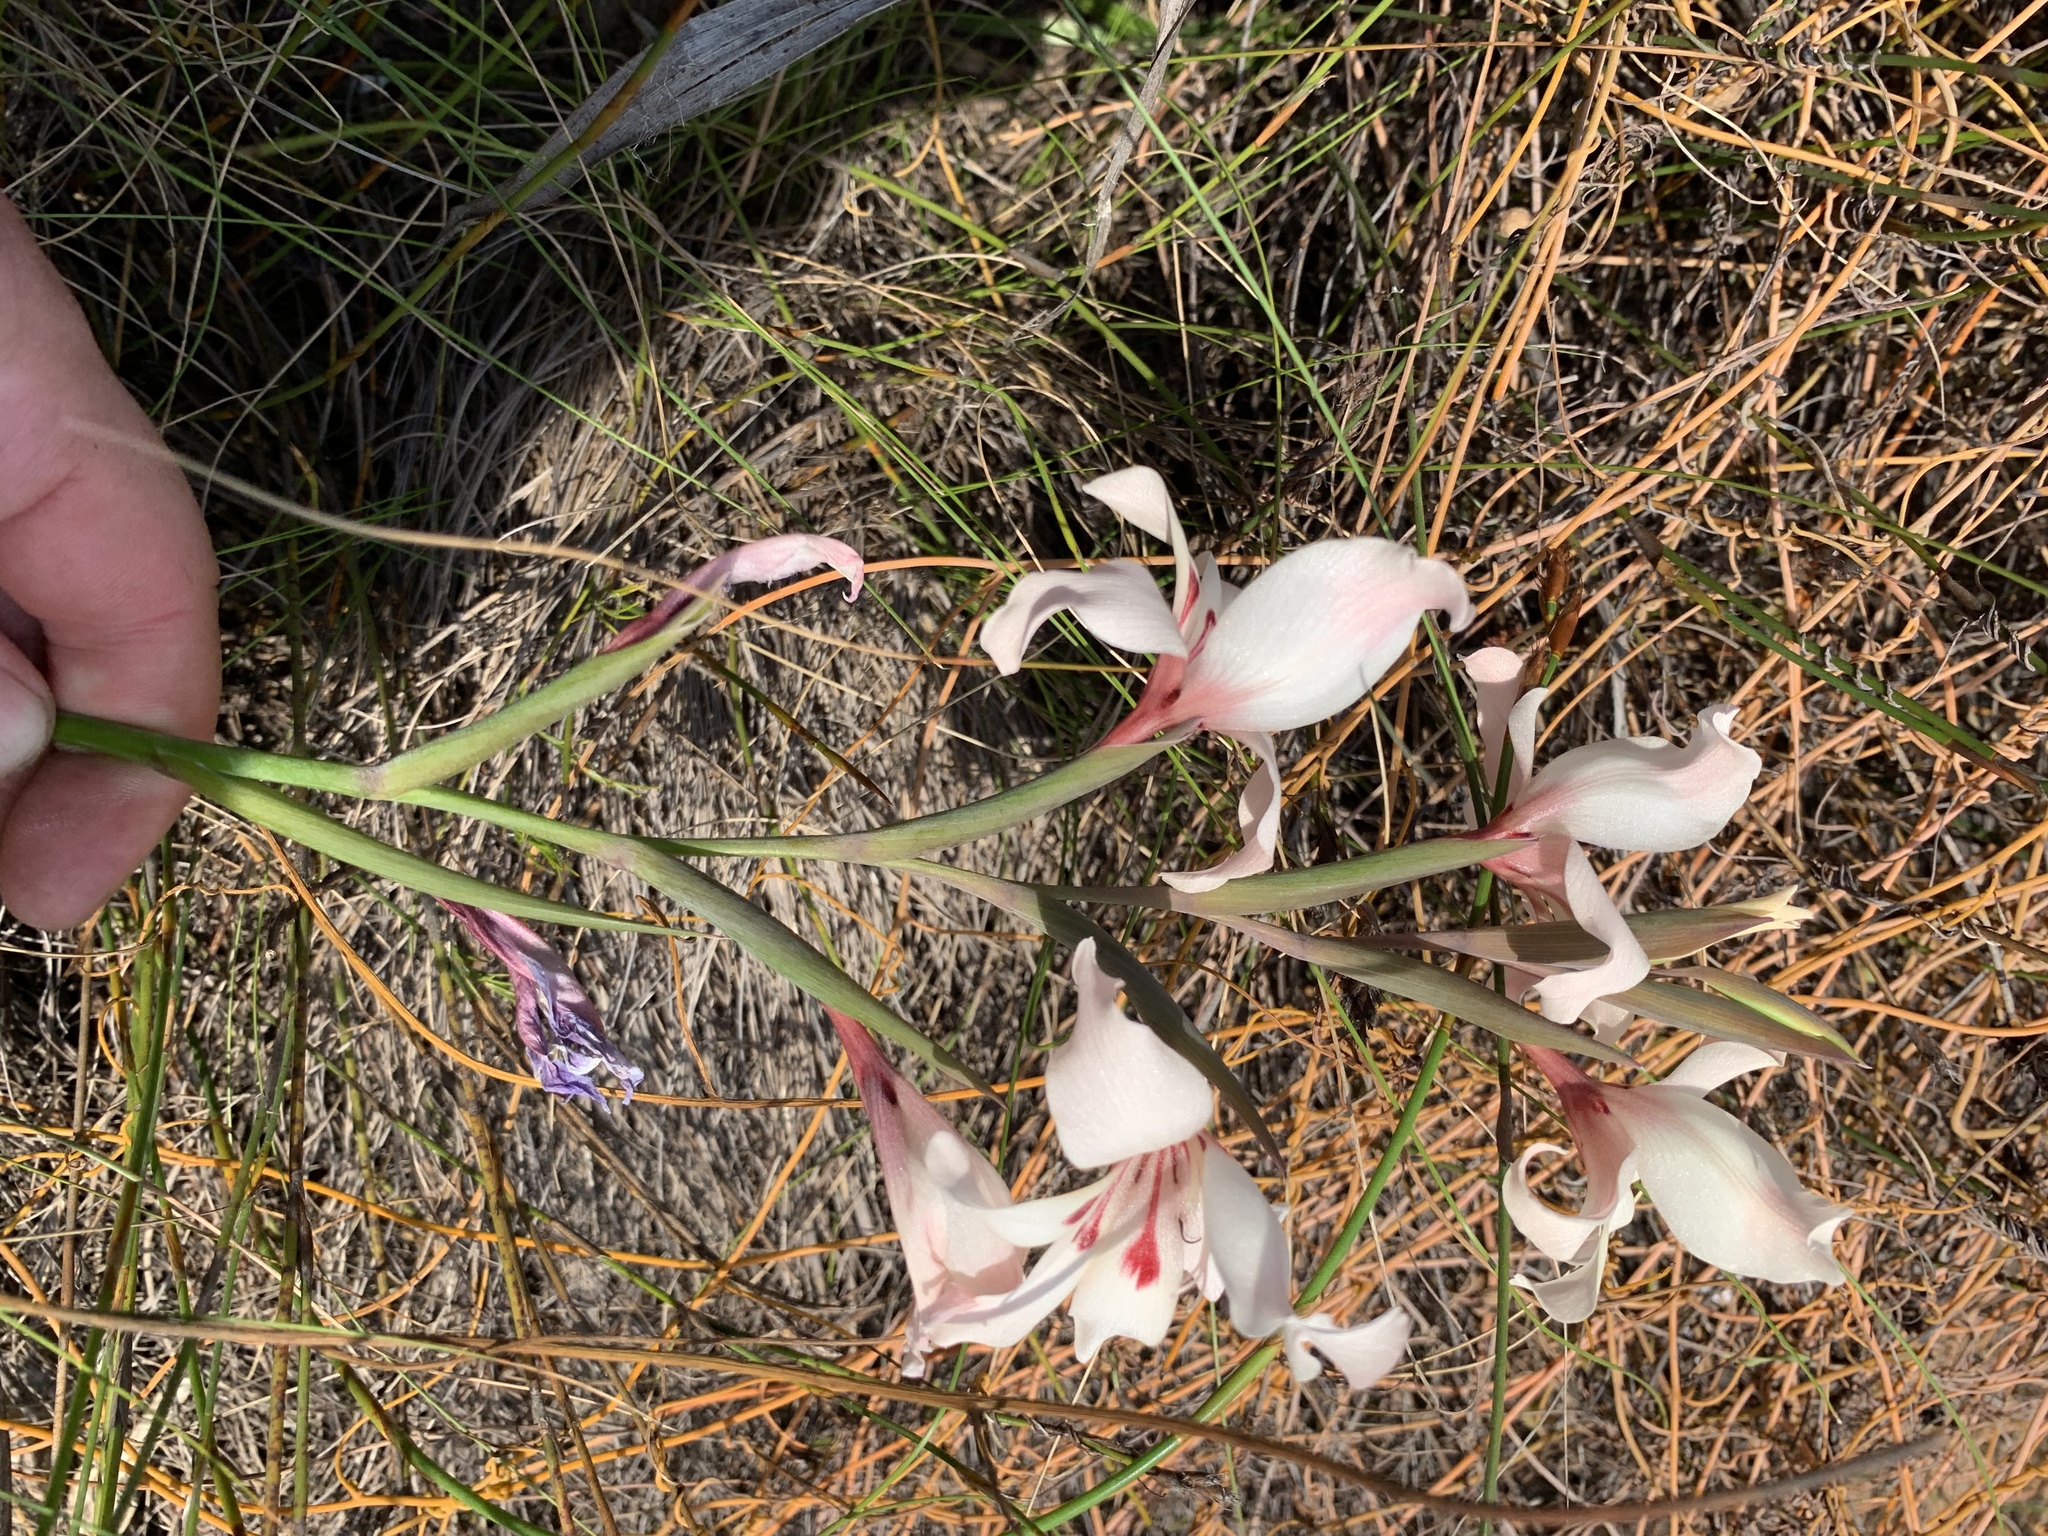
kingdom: Plantae
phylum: Tracheophyta
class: Liliopsida
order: Asparagales
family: Iridaceae
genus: Gladiolus
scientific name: Gladiolus carneus
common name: Painted-lady
